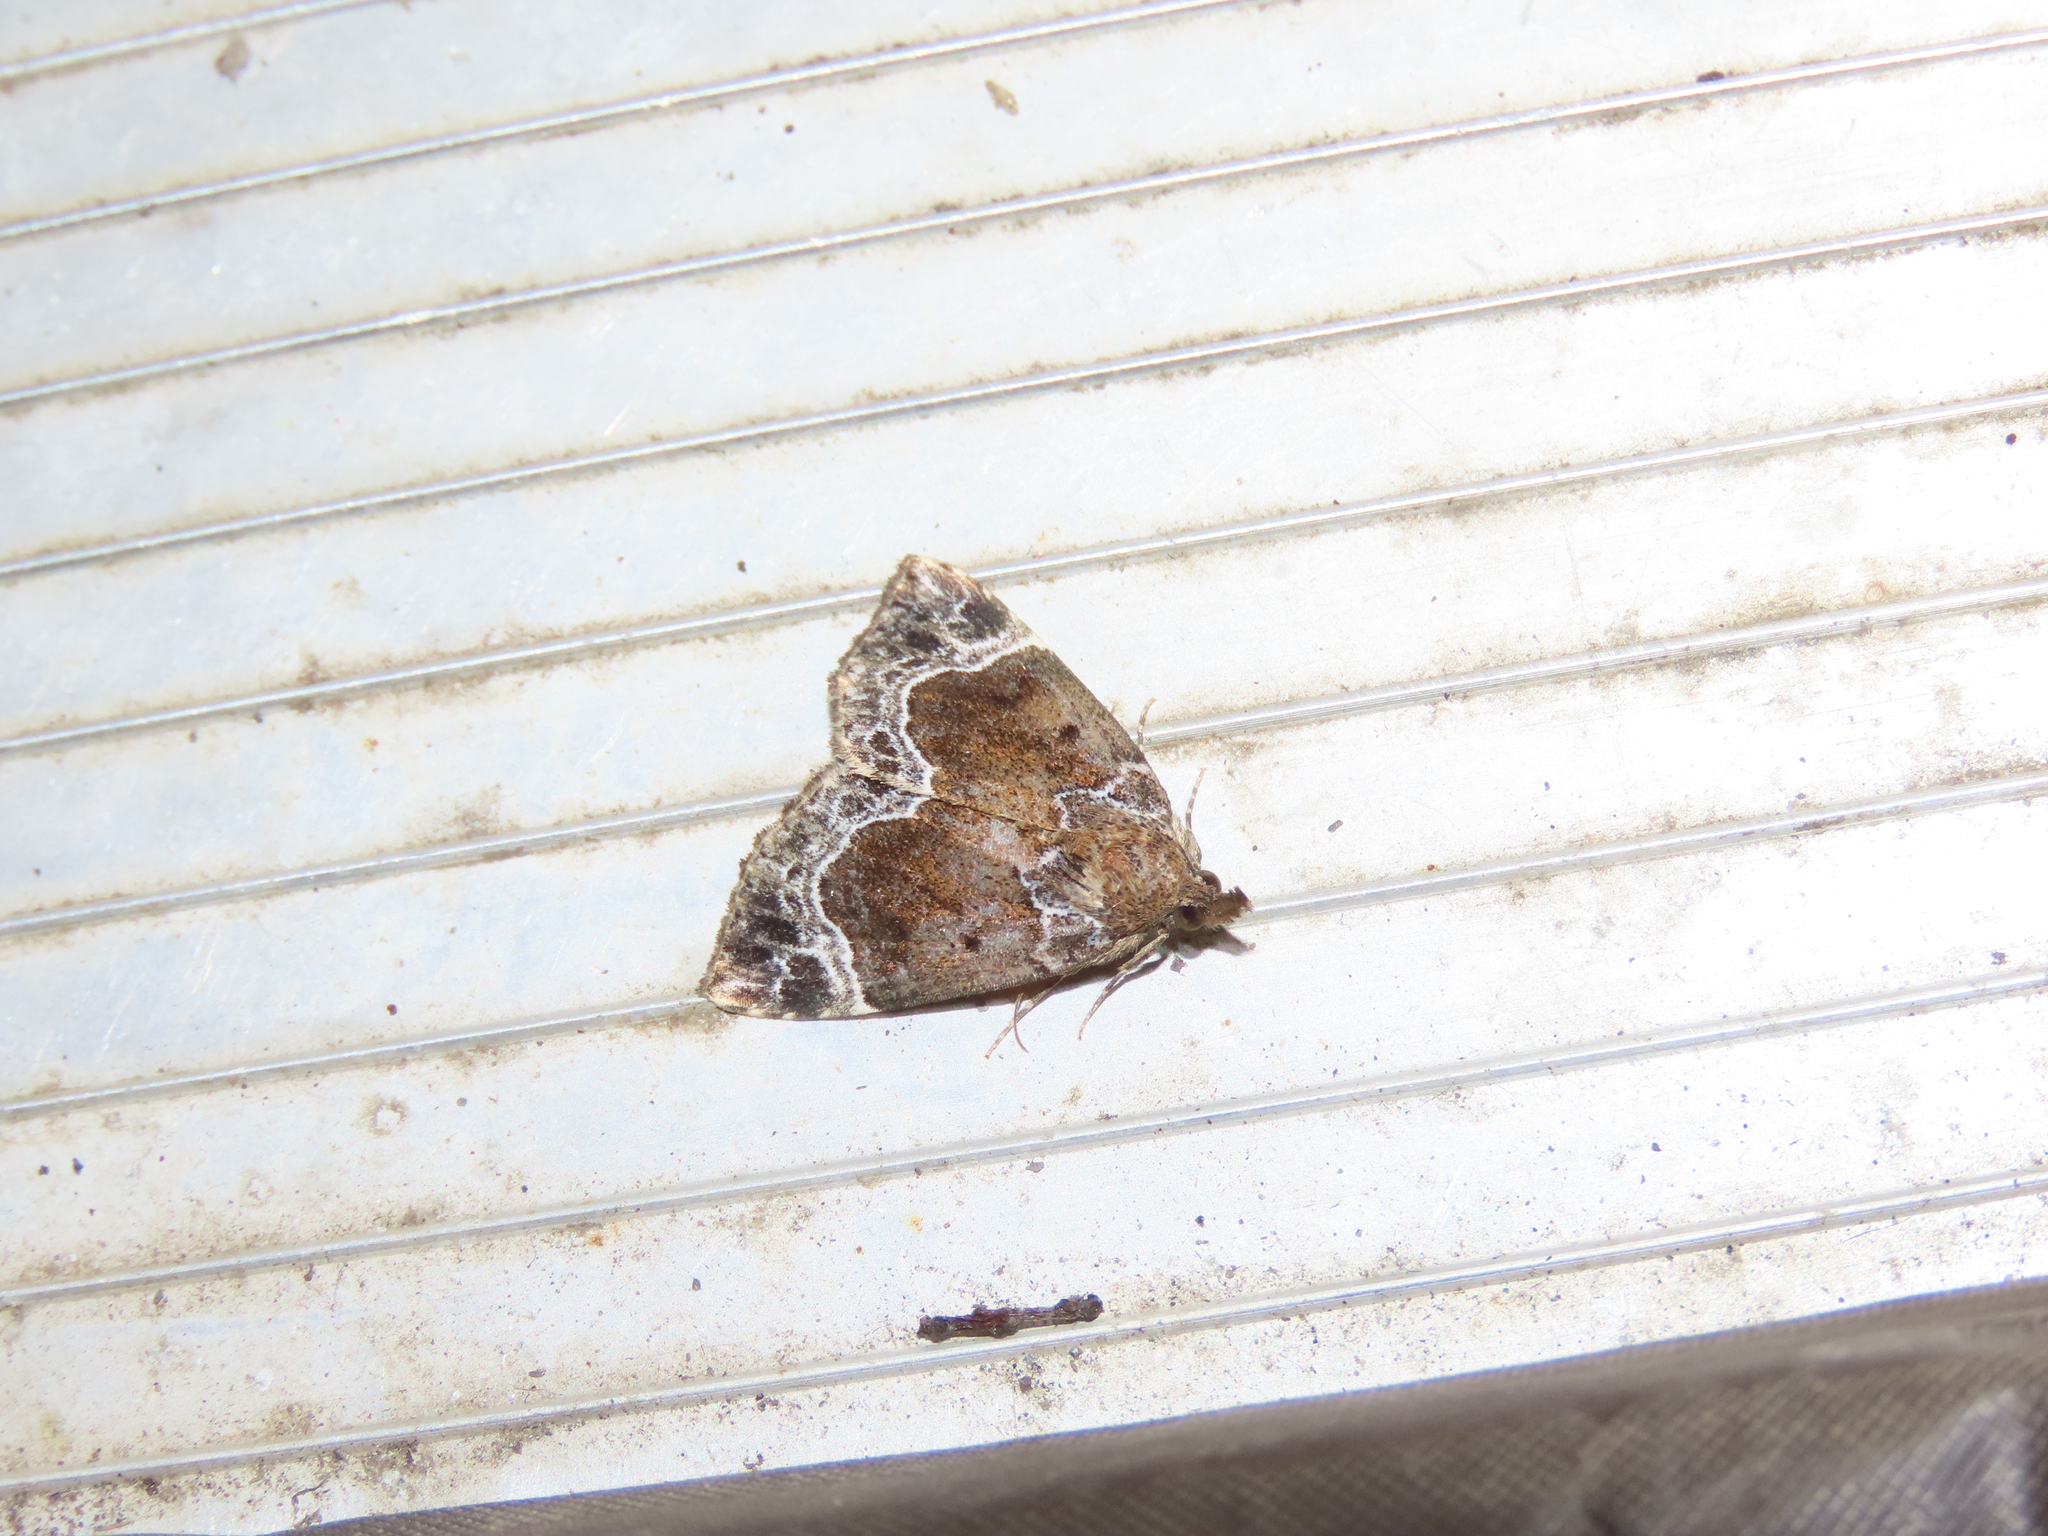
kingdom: Animalia
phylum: Arthropoda
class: Insecta
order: Lepidoptera
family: Erebidae
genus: Hypena
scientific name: Hypena abalienalis
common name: White-lined snout
